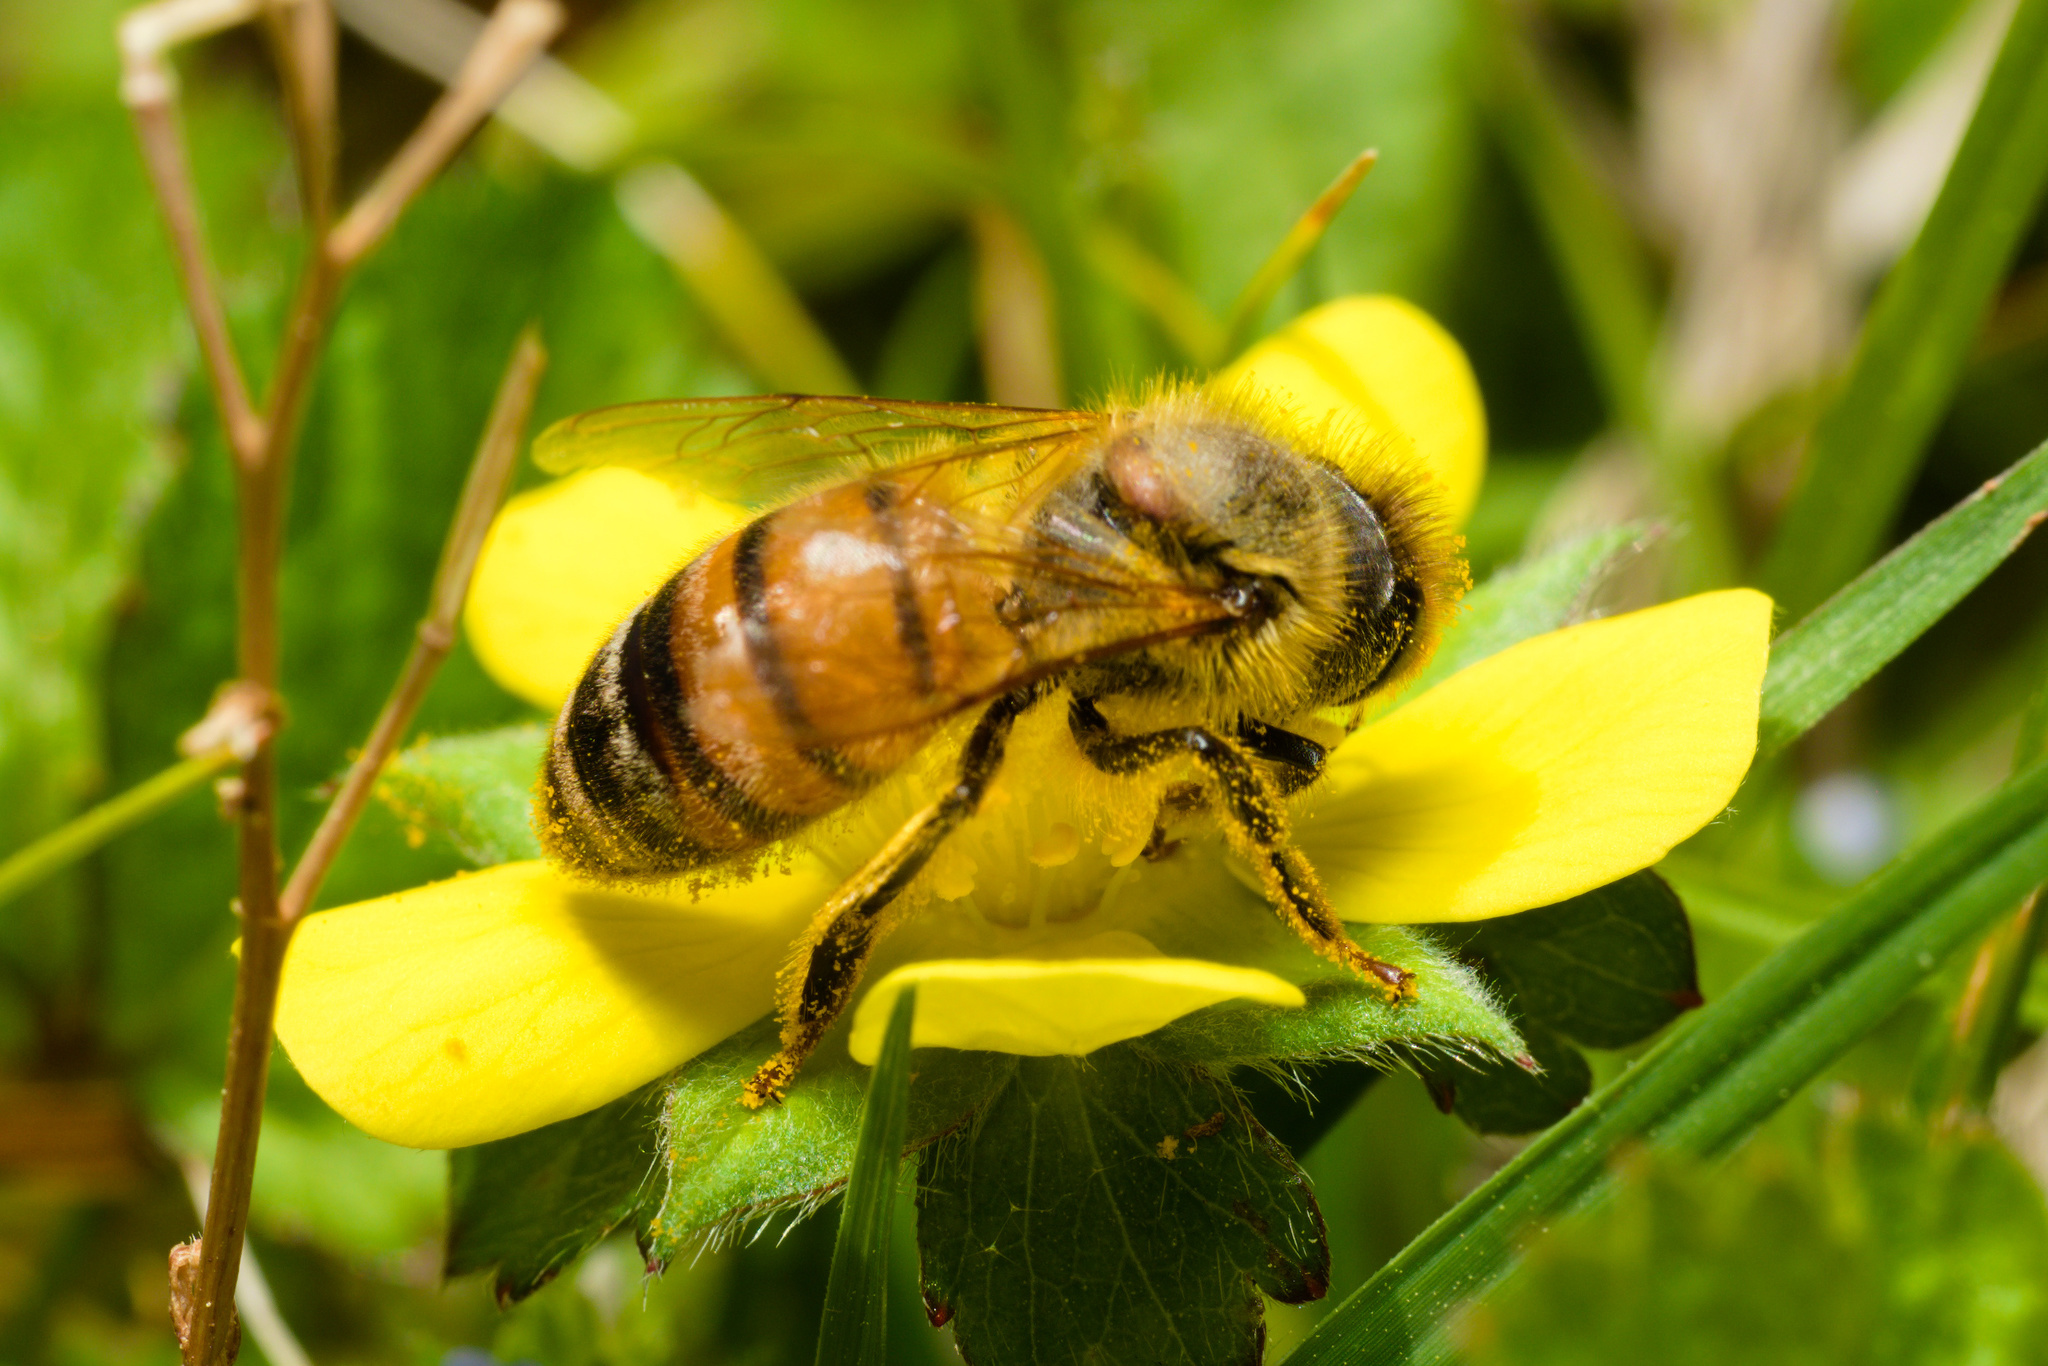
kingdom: Animalia
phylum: Arthropoda
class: Insecta
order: Hymenoptera
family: Apidae
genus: Apis
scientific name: Apis mellifera
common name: Honey bee
